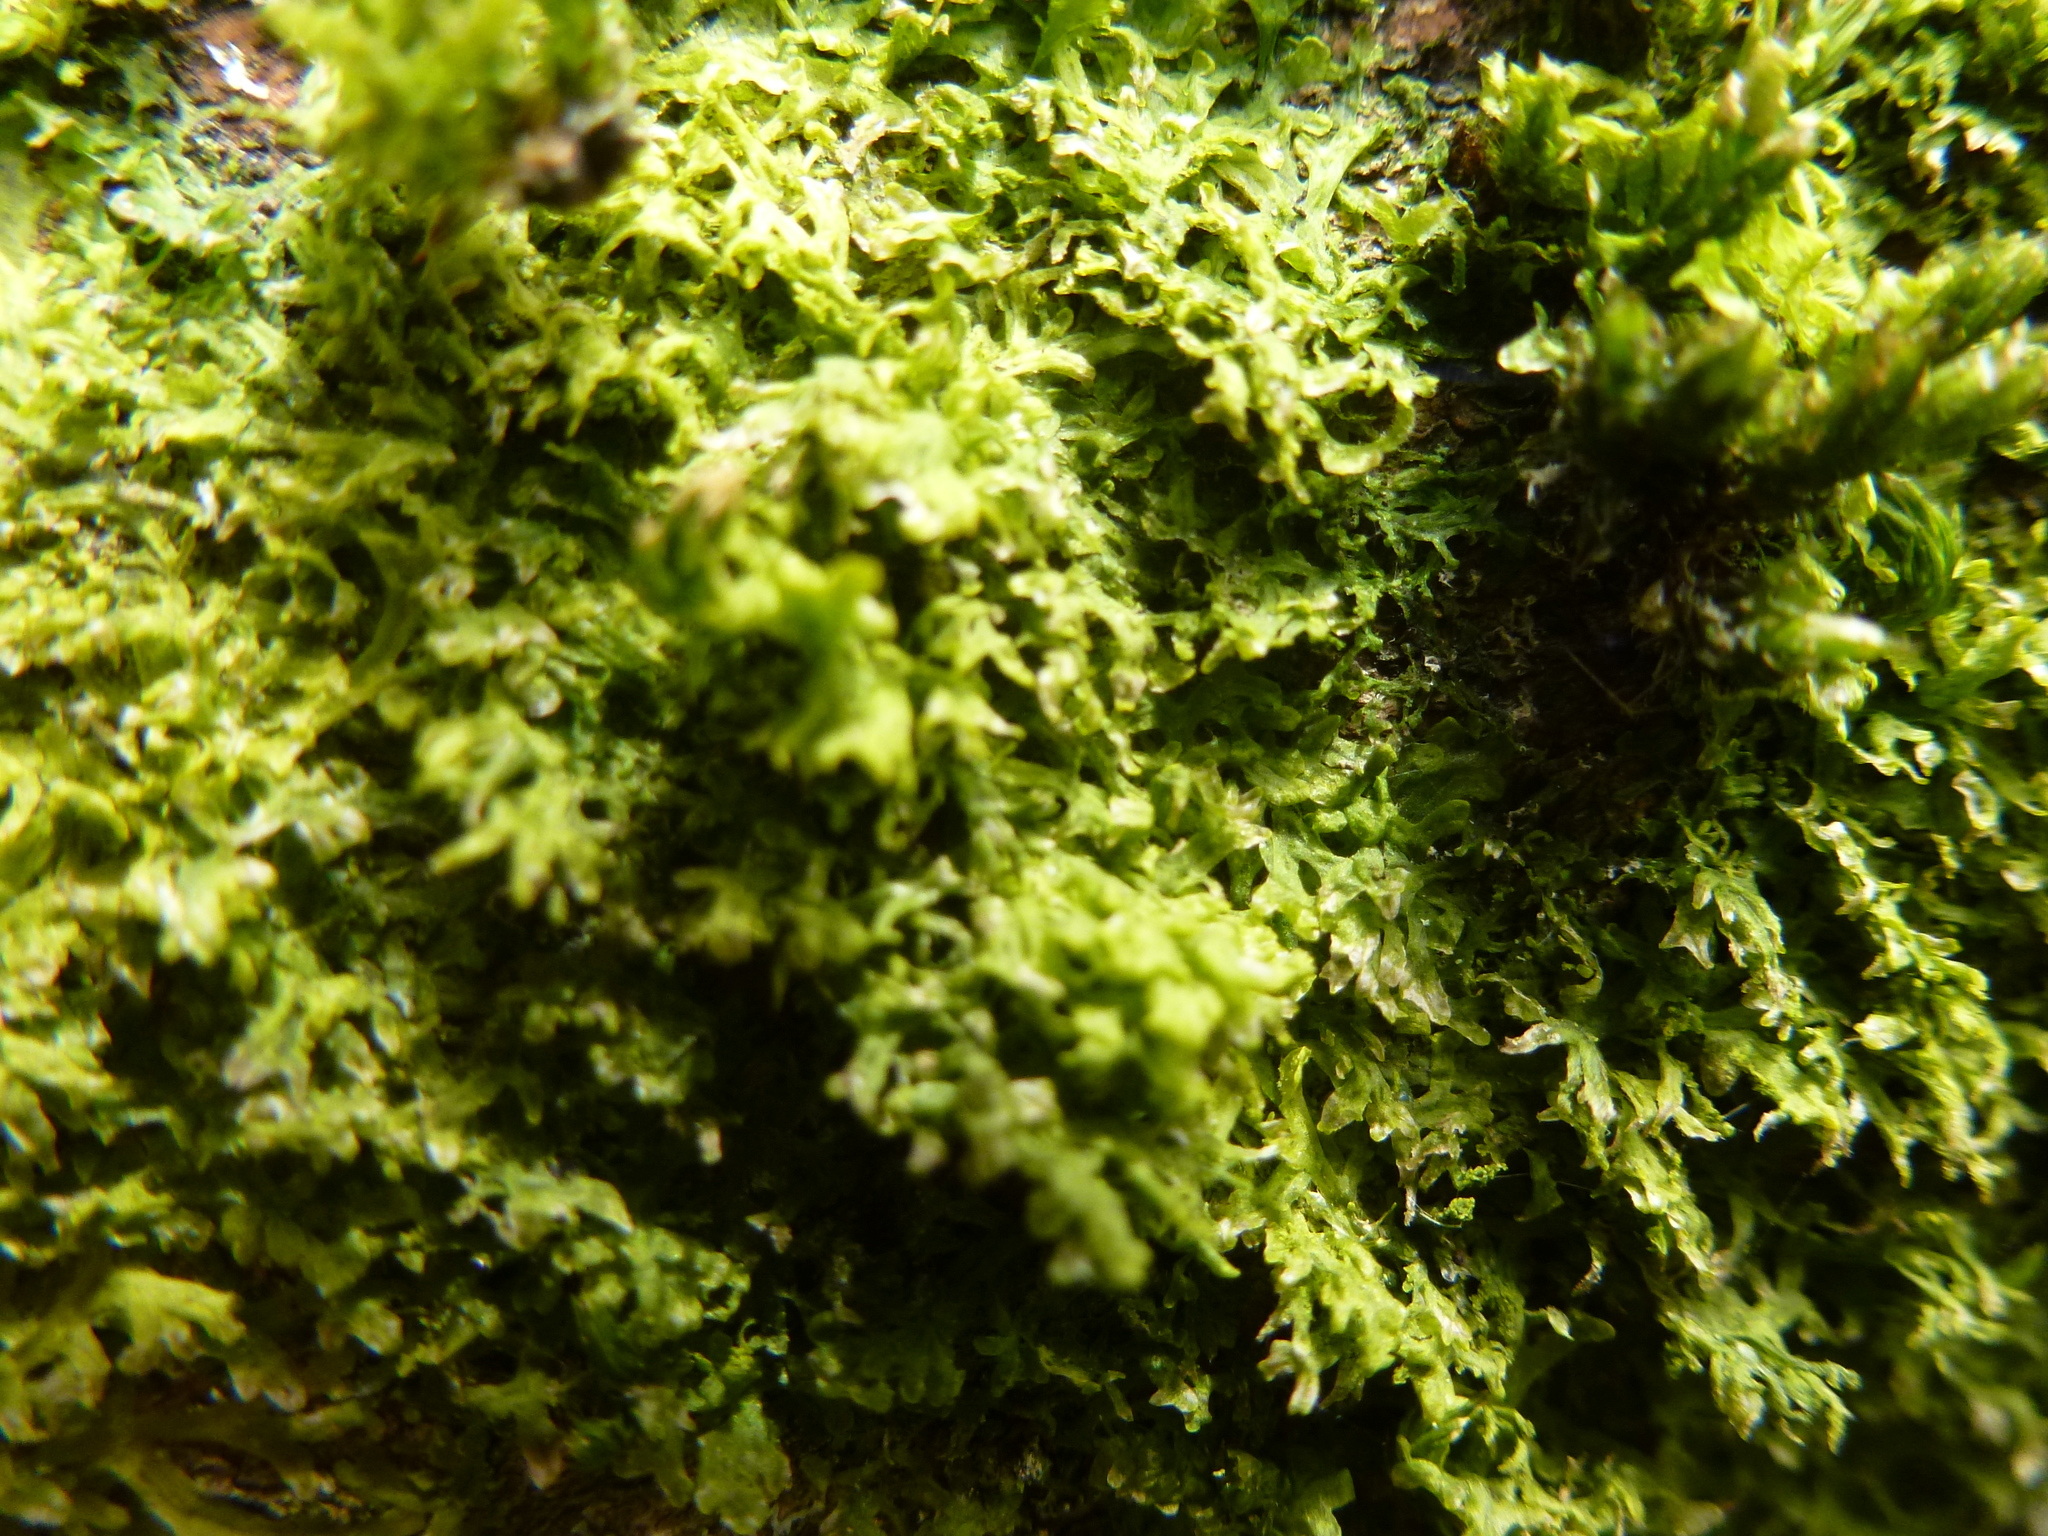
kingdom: Plantae
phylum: Marchantiophyta
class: Jungermanniopsida
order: Metzgeriales
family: Metzgeriaceae
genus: Metzgeria
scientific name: Metzgeria violacea
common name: Blueish veilwort
